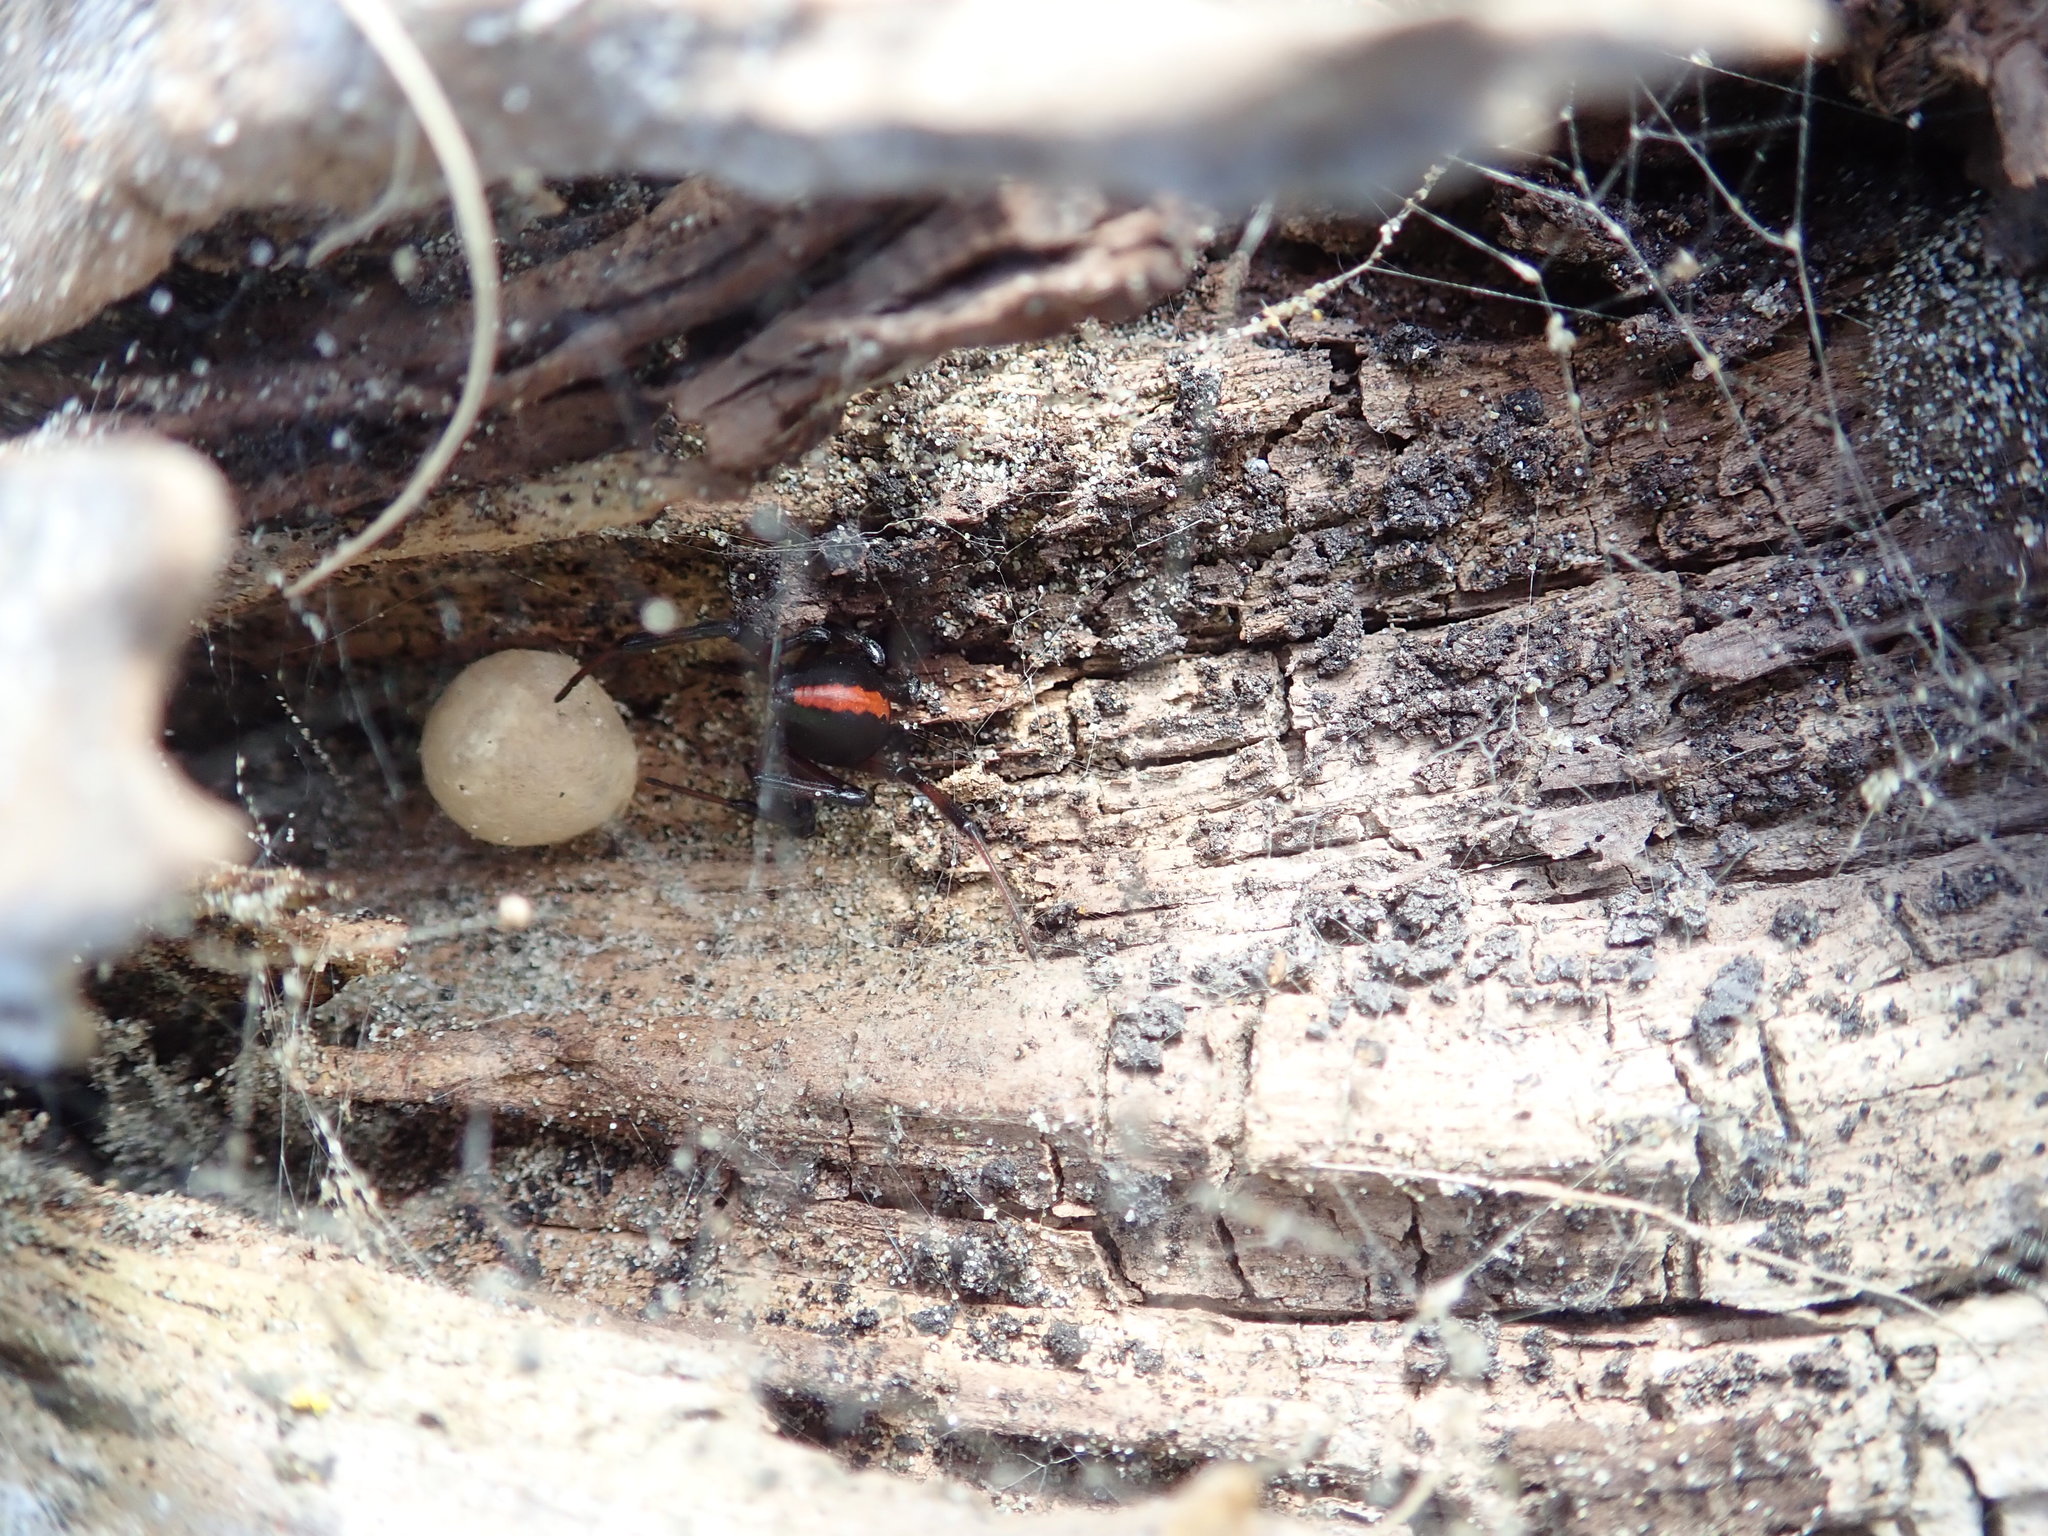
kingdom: Animalia
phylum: Arthropoda
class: Arachnida
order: Araneae
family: Theridiidae
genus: Latrodectus
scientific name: Latrodectus katipo
